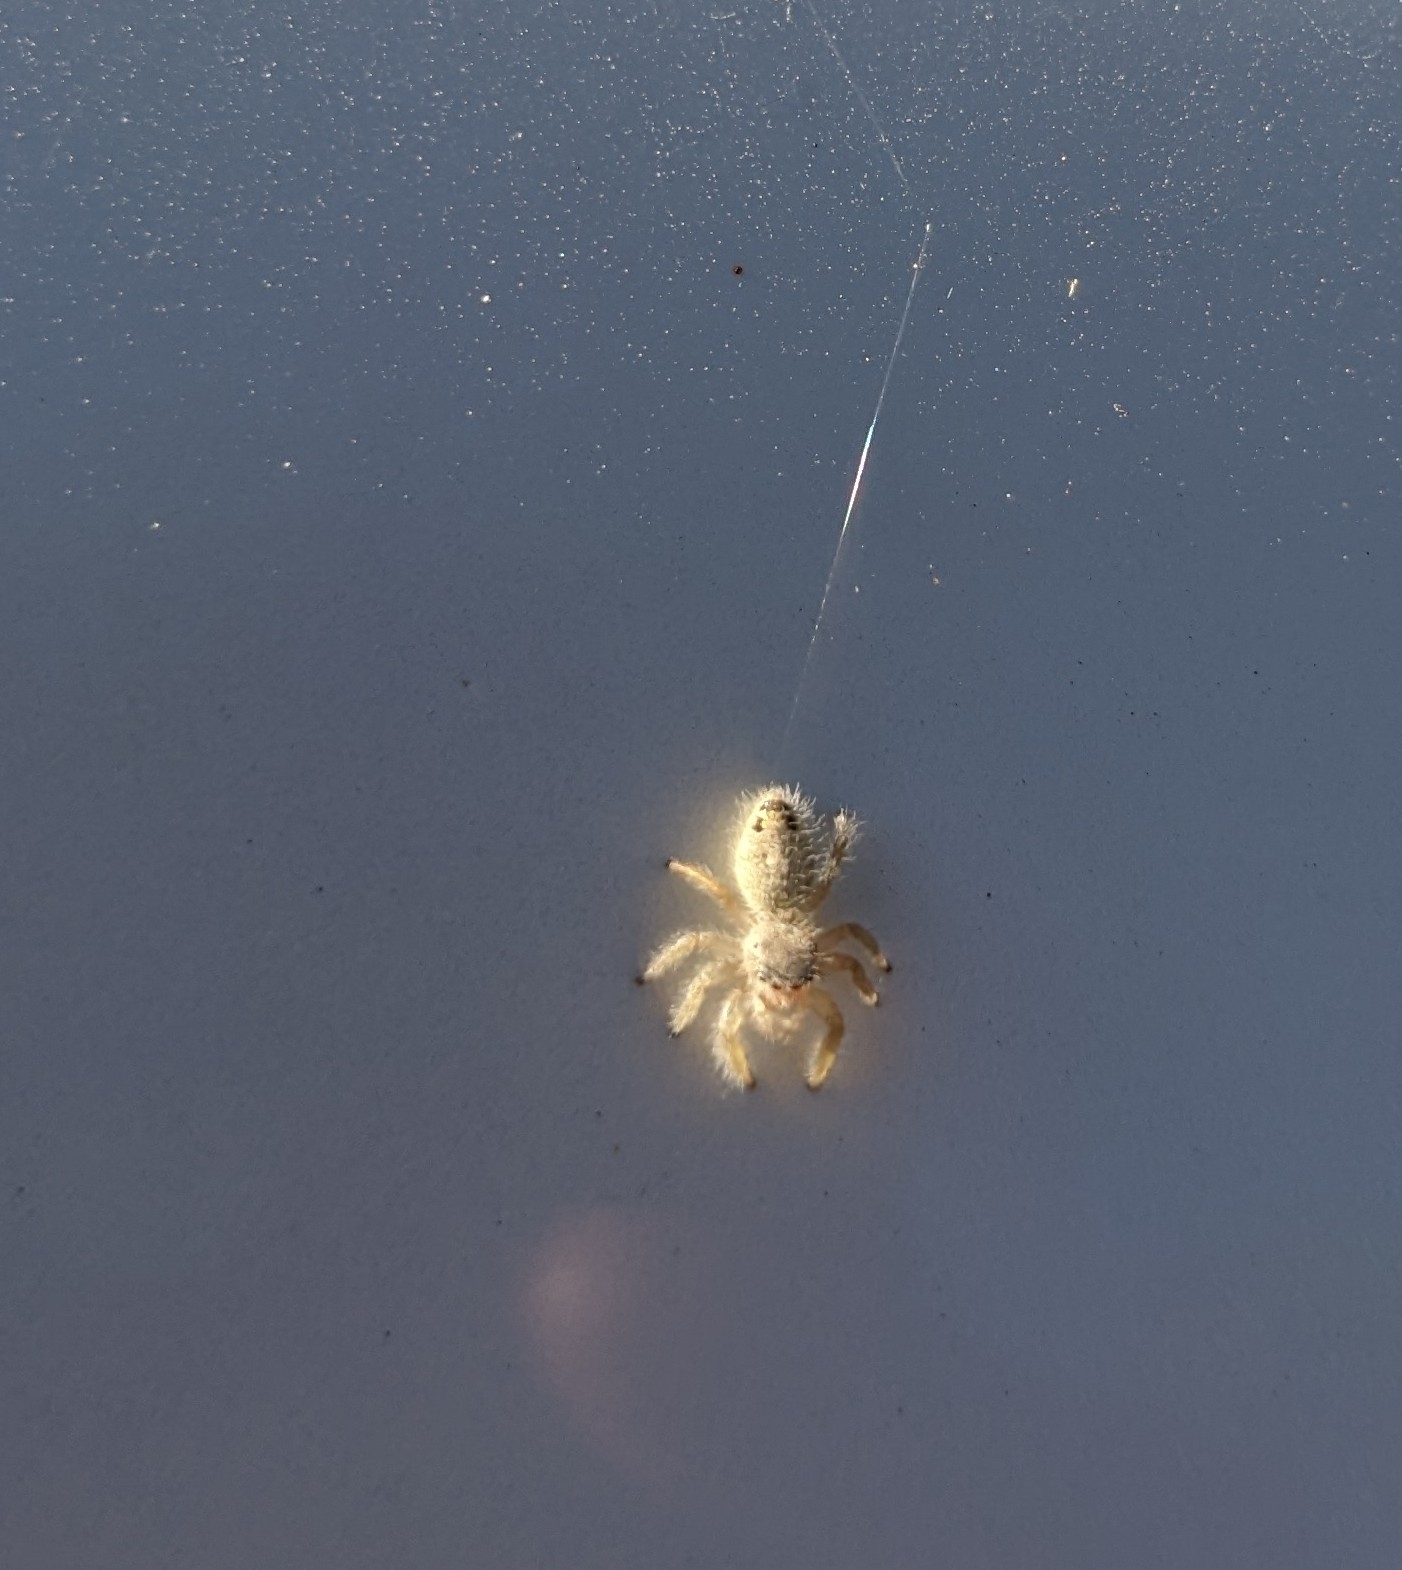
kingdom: Animalia
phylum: Arthropoda
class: Arachnida
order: Araneae
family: Salticidae
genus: Phidippus
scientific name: Phidippus tux
